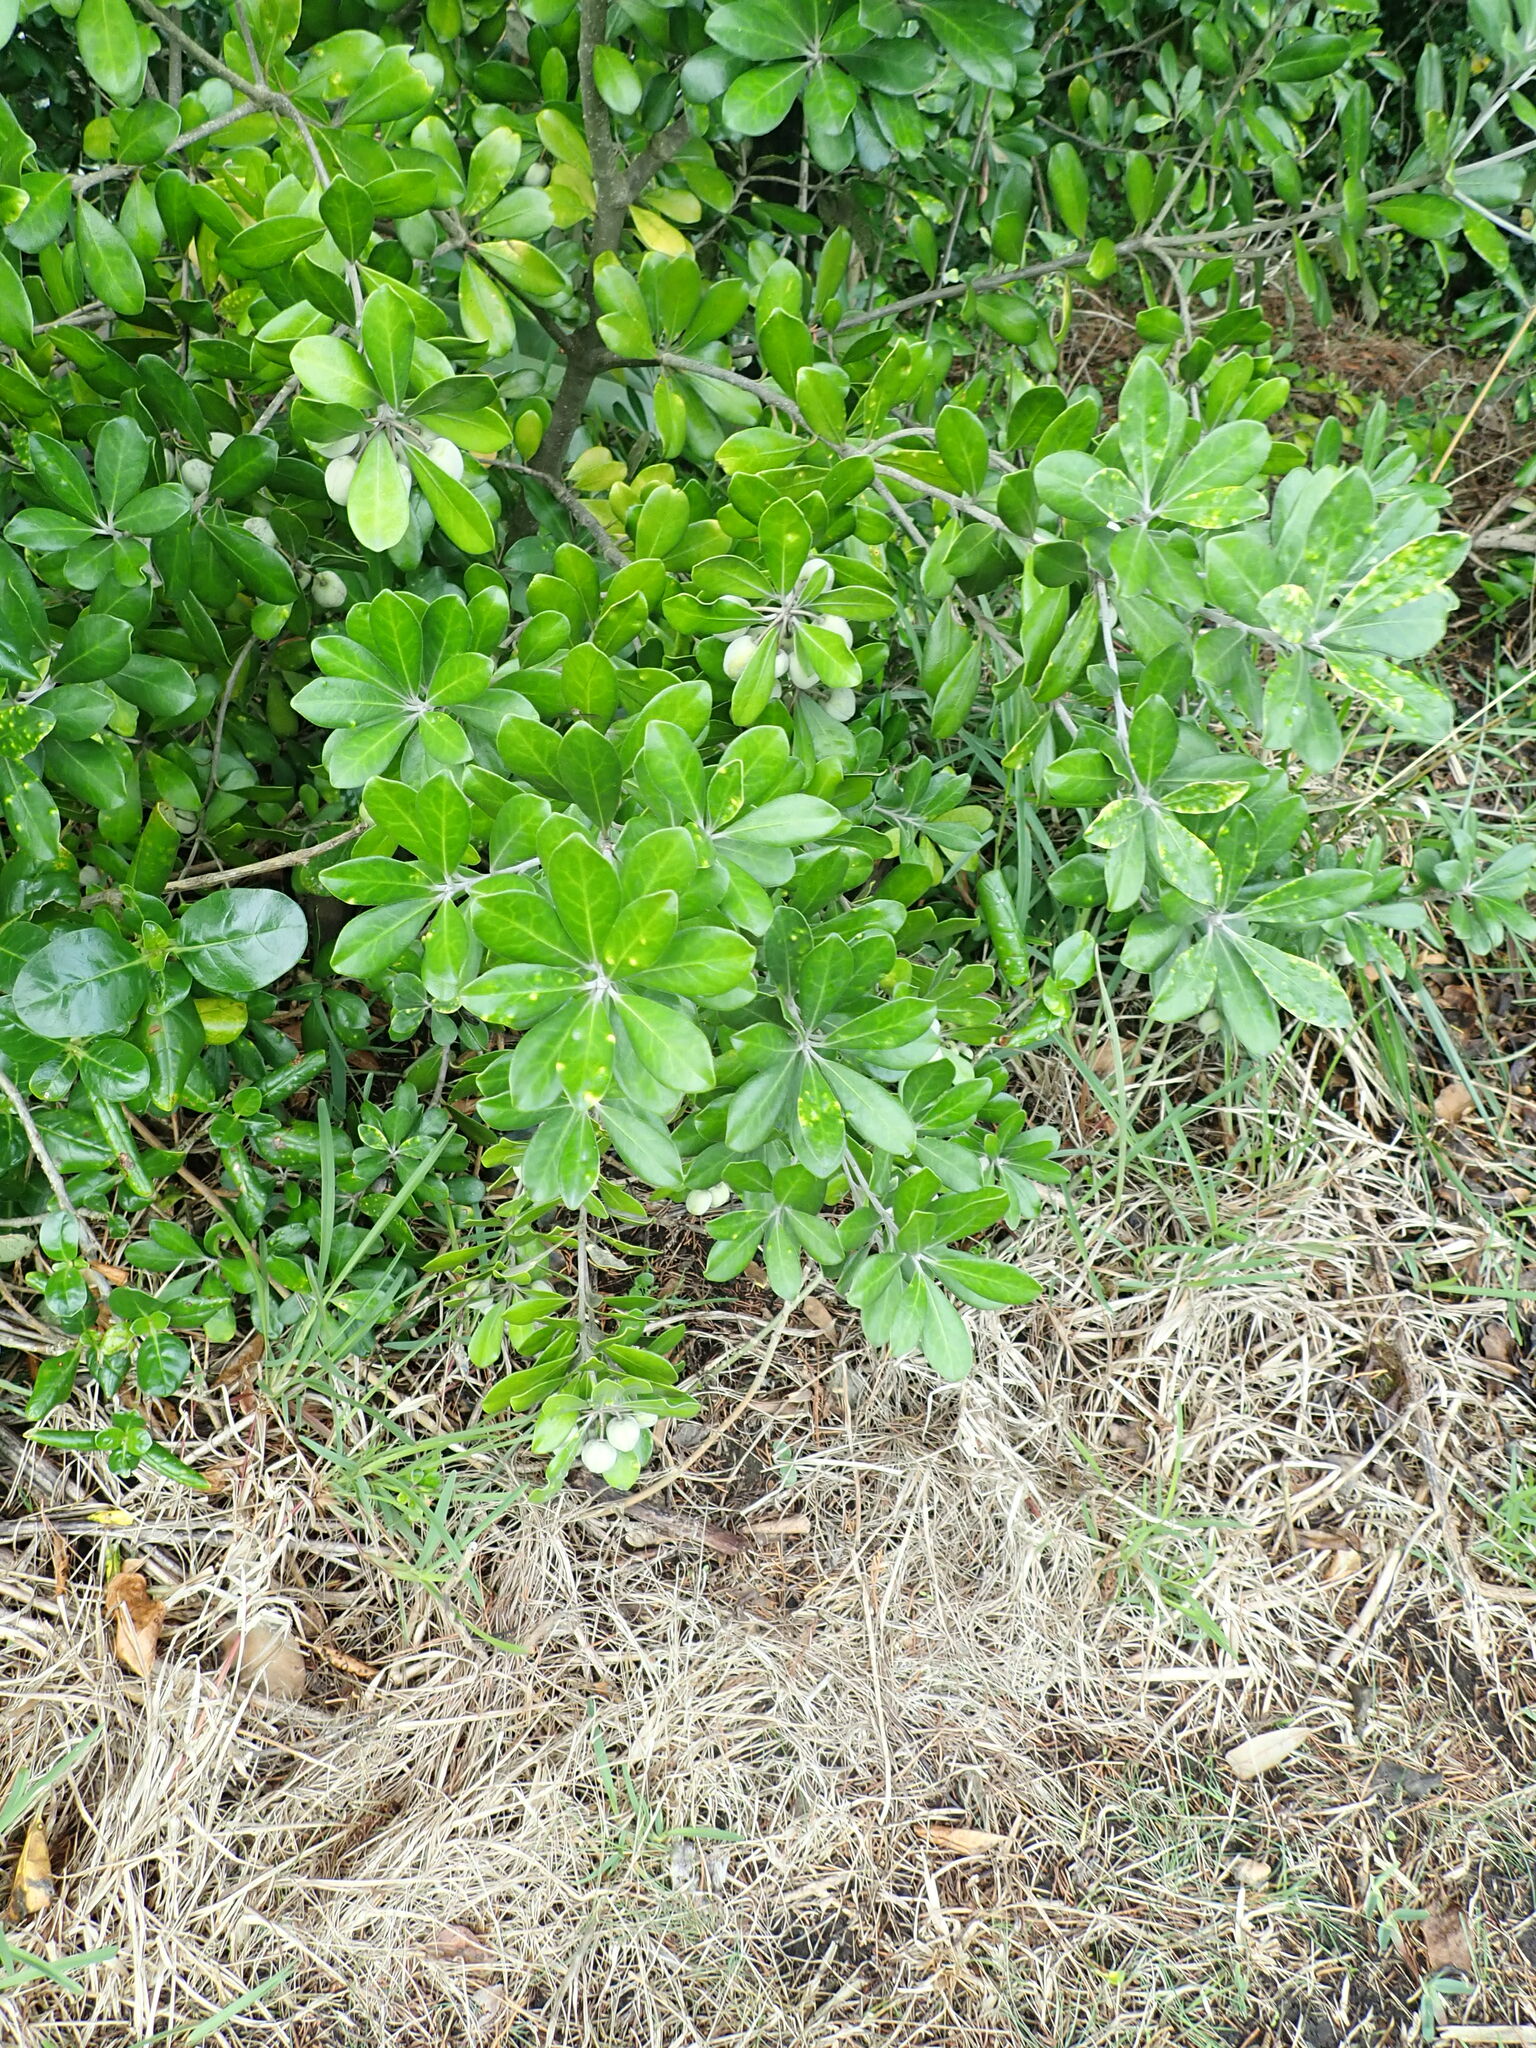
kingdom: Plantae
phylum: Tracheophyta
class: Magnoliopsida
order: Apiales
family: Pittosporaceae
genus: Pittosporum
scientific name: Pittosporum crassifolium
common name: Karo
